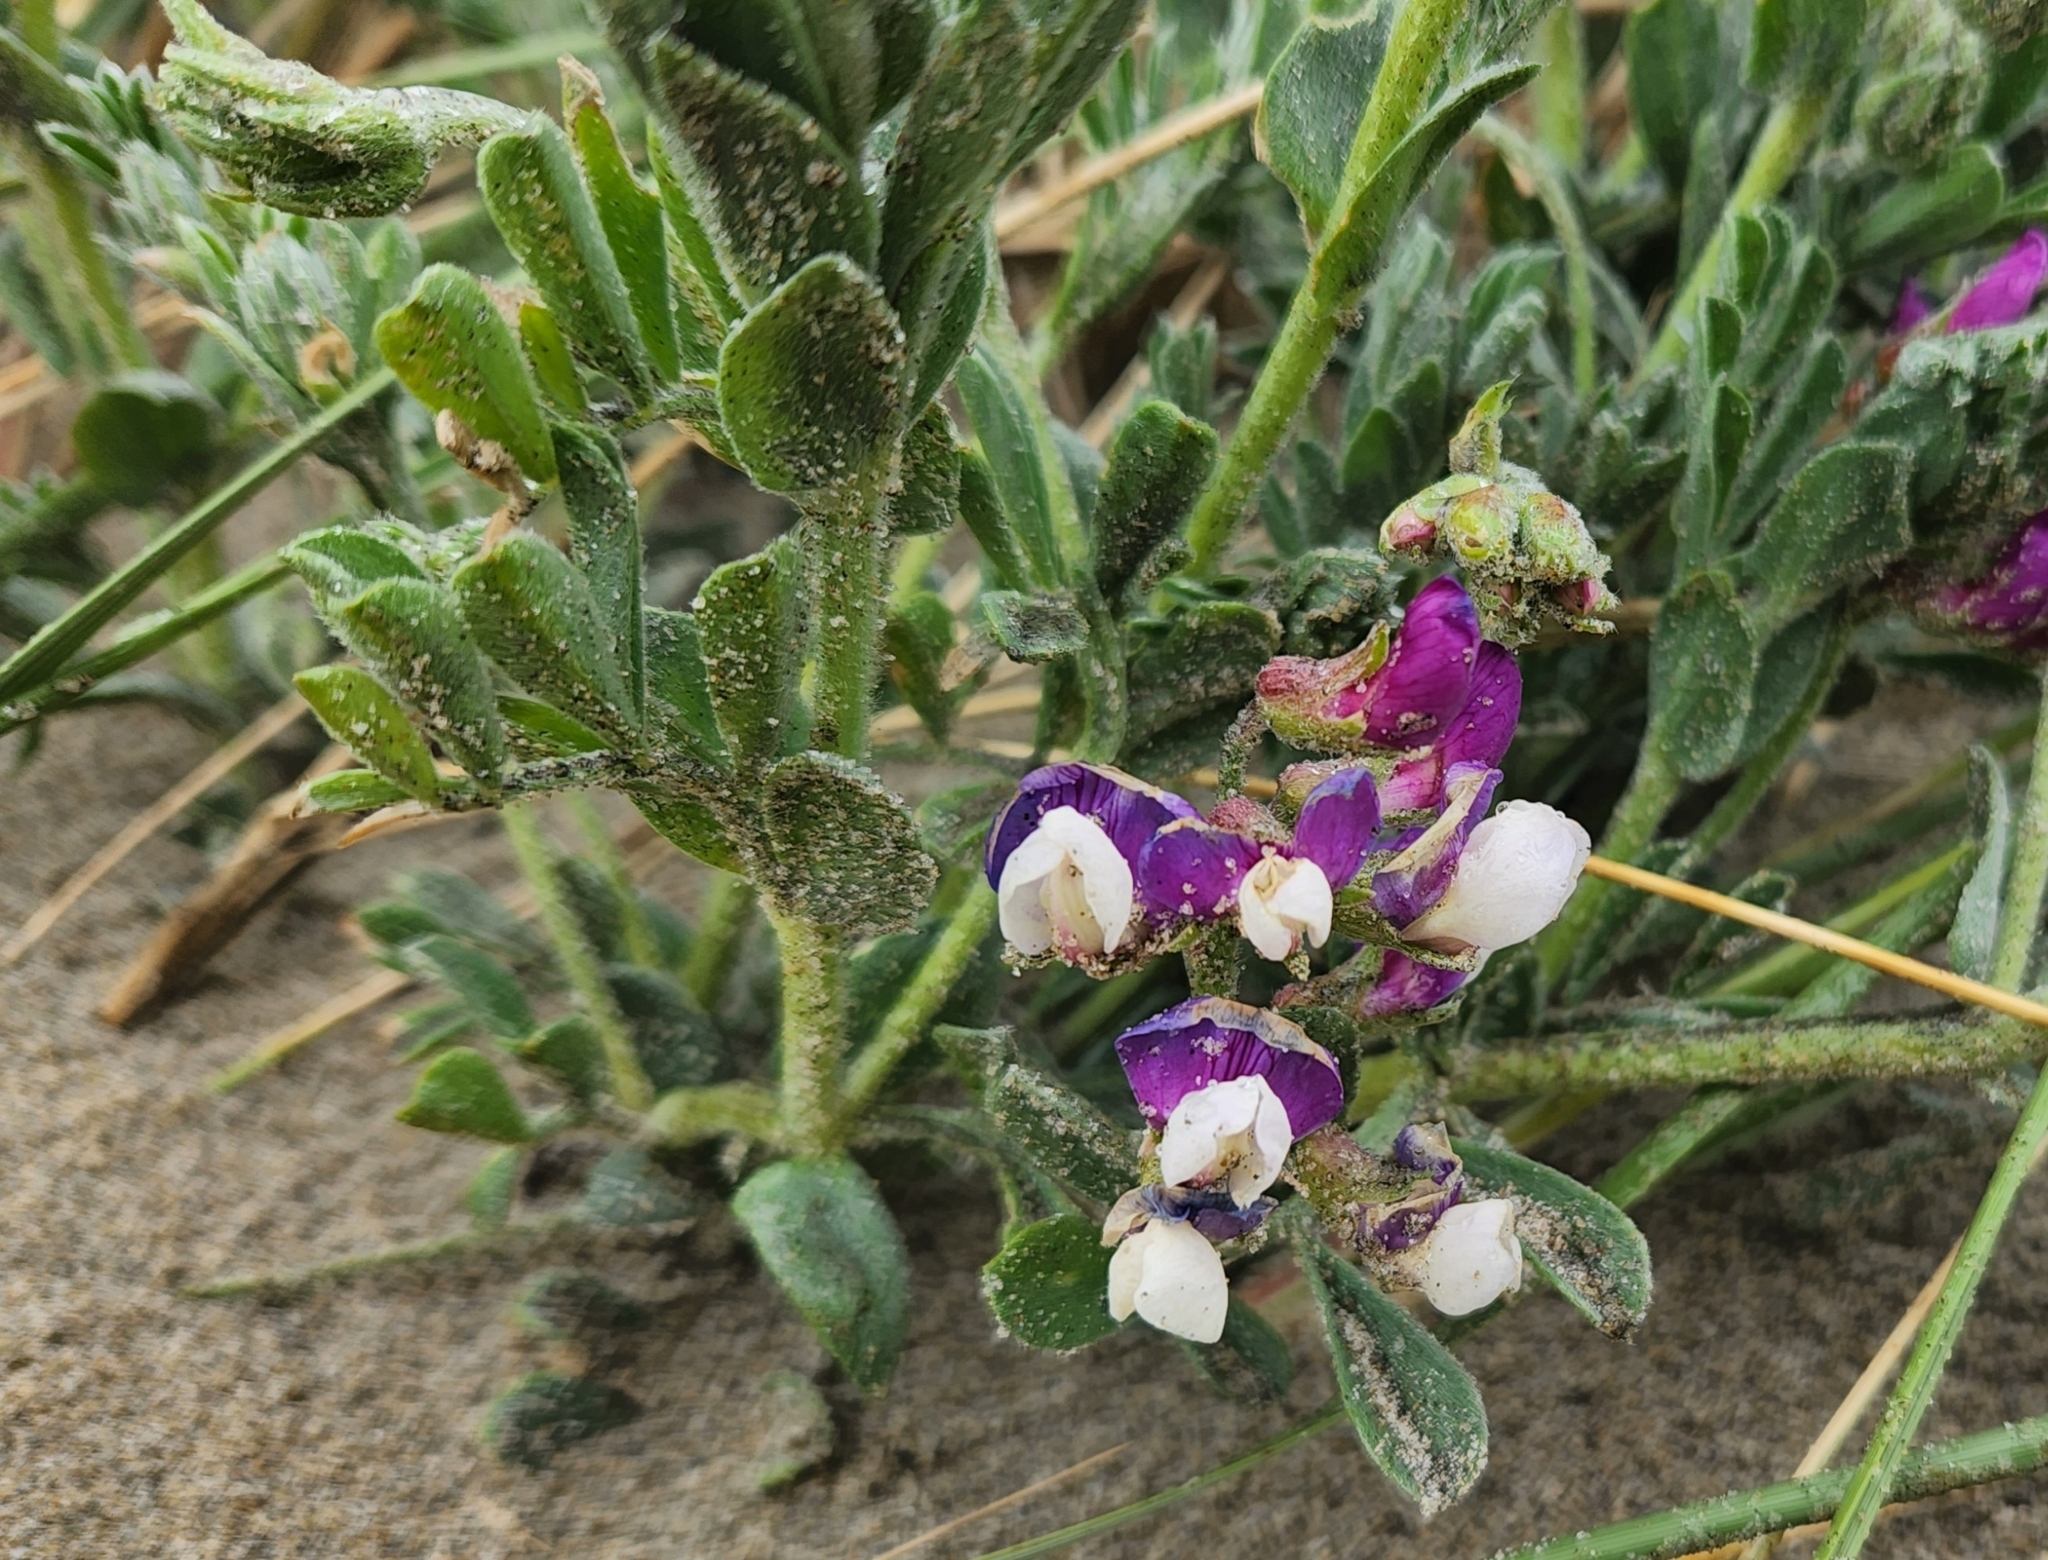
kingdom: Plantae
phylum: Tracheophyta
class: Magnoliopsida
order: Fabales
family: Fabaceae
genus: Lathyrus
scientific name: Lathyrus littoralis
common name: Dune sweet pea
